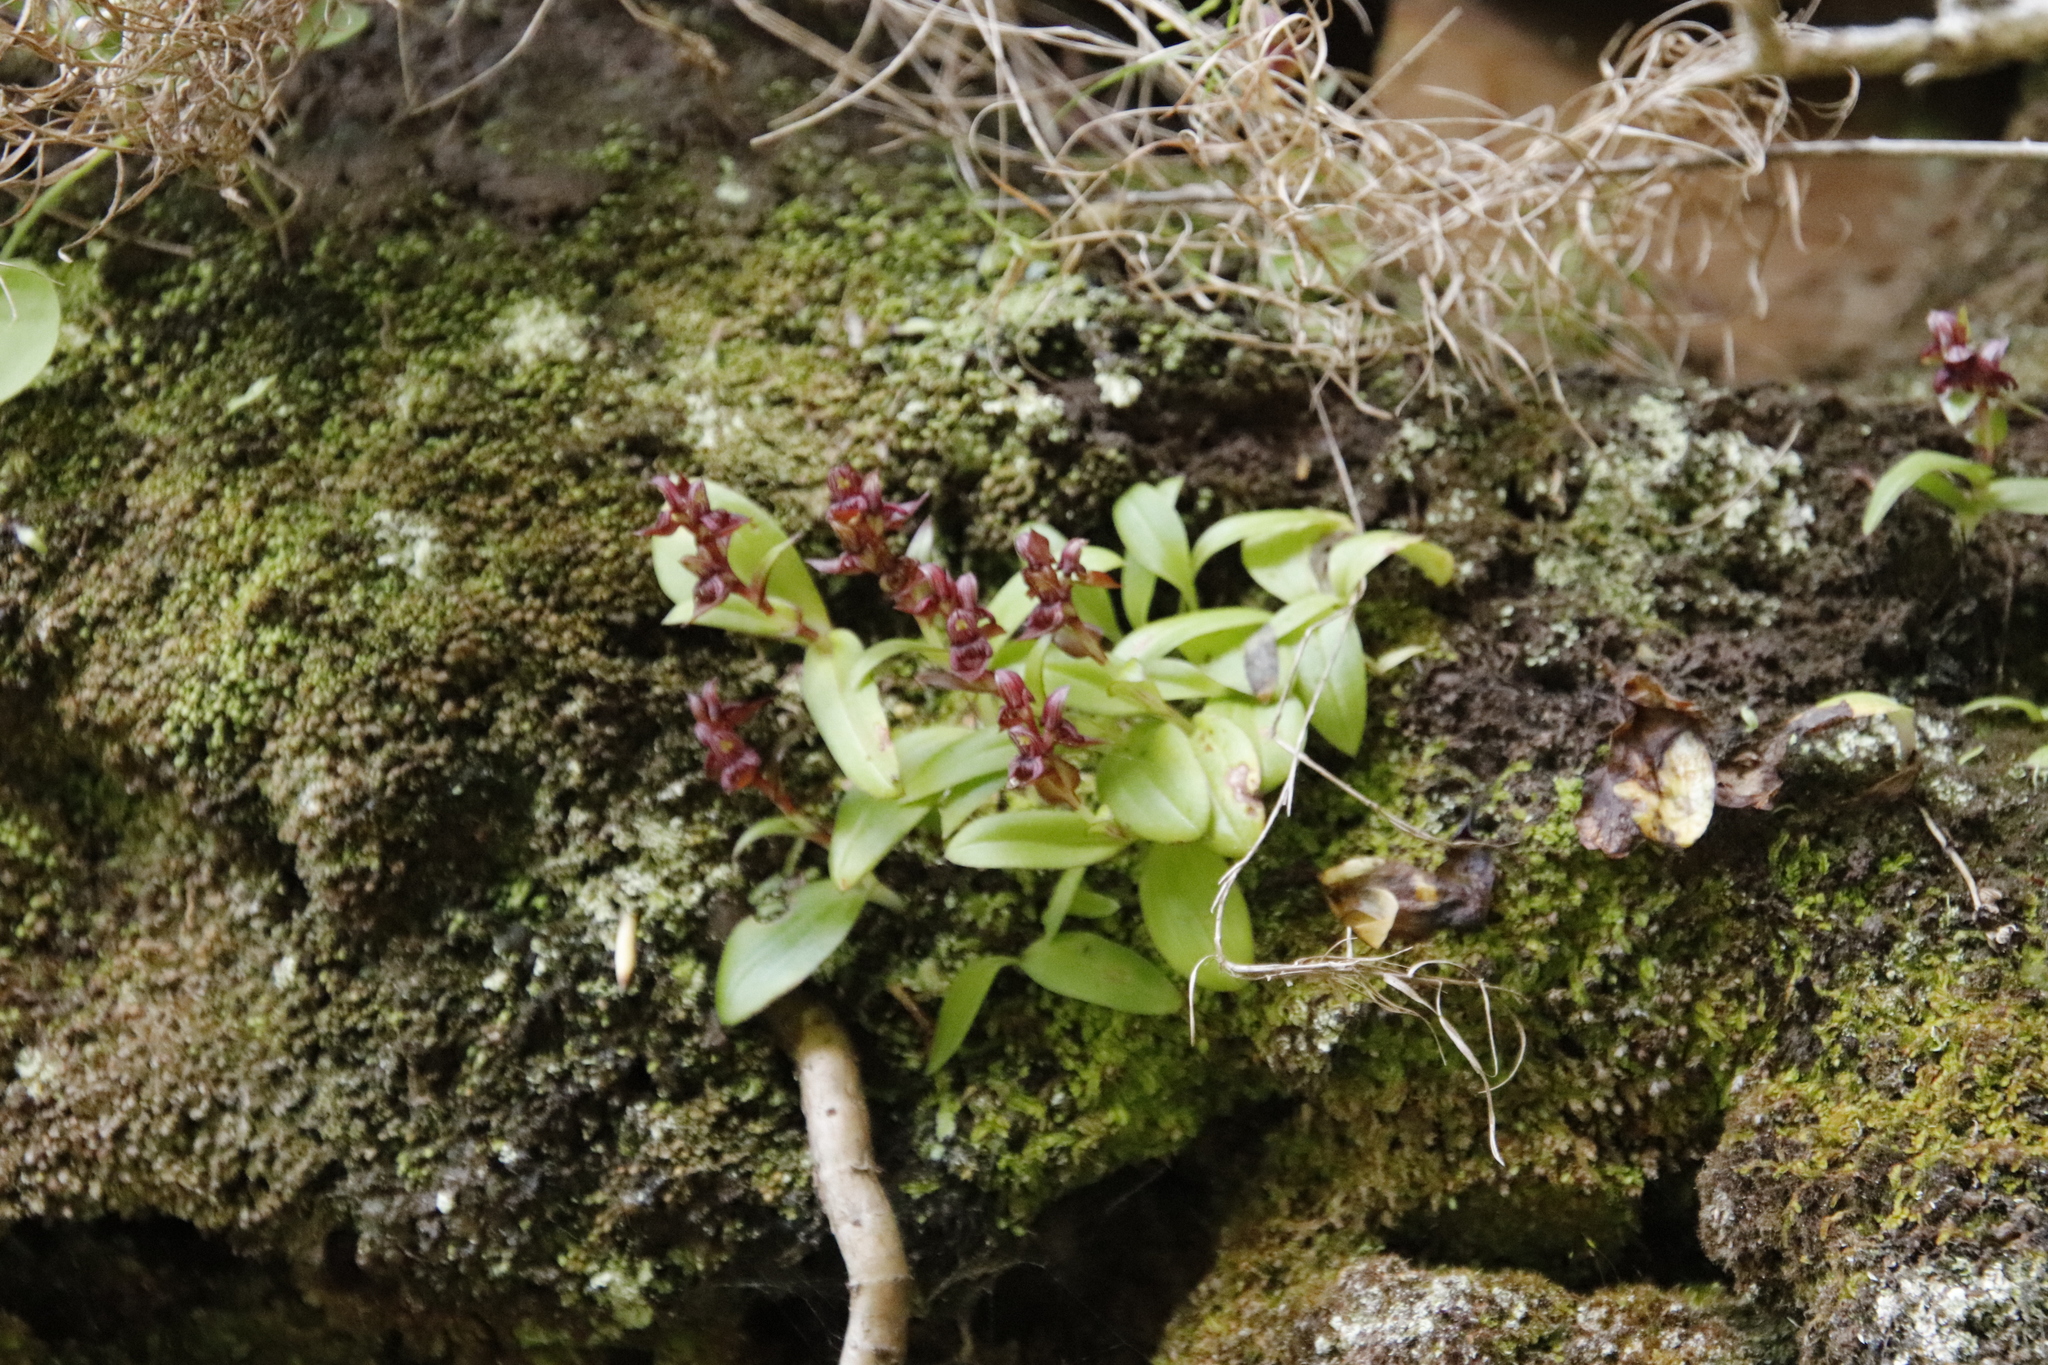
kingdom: Plantae
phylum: Tracheophyta
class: Liliopsida
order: Asparagales
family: Orchidaceae
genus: Satyrium
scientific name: Satyrium bracteatum
